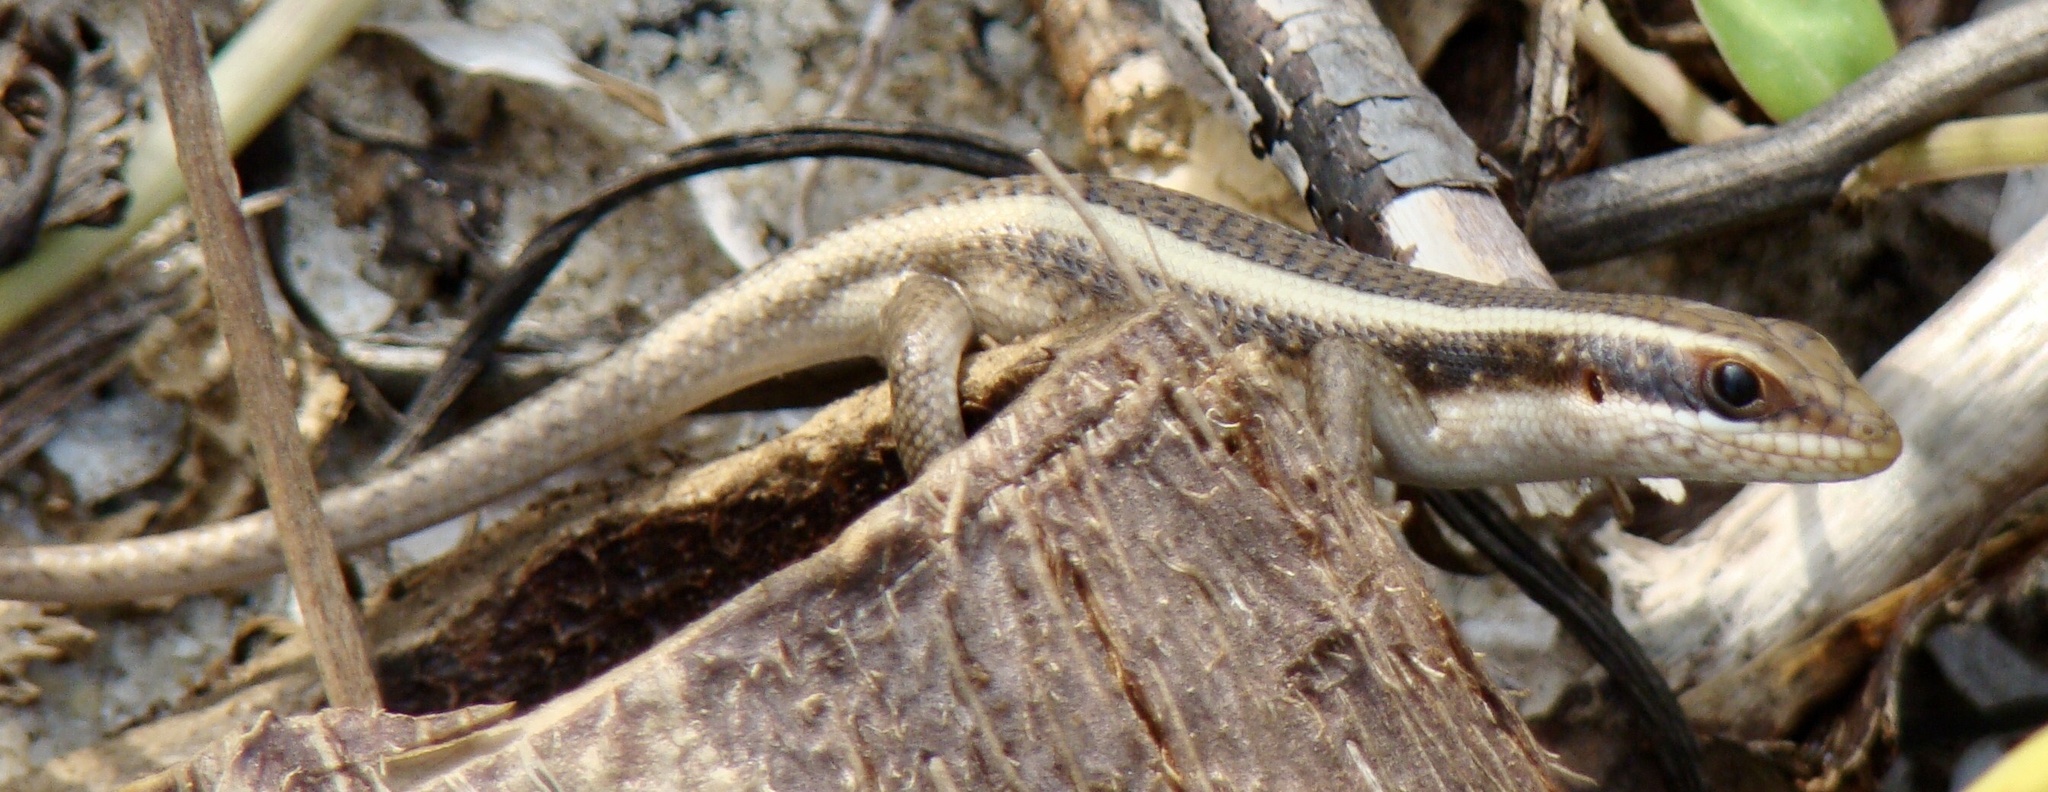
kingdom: Animalia
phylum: Chordata
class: Squamata
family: Scincidae
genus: Trachylepis
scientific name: Trachylepis striata
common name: African striped mabuya
